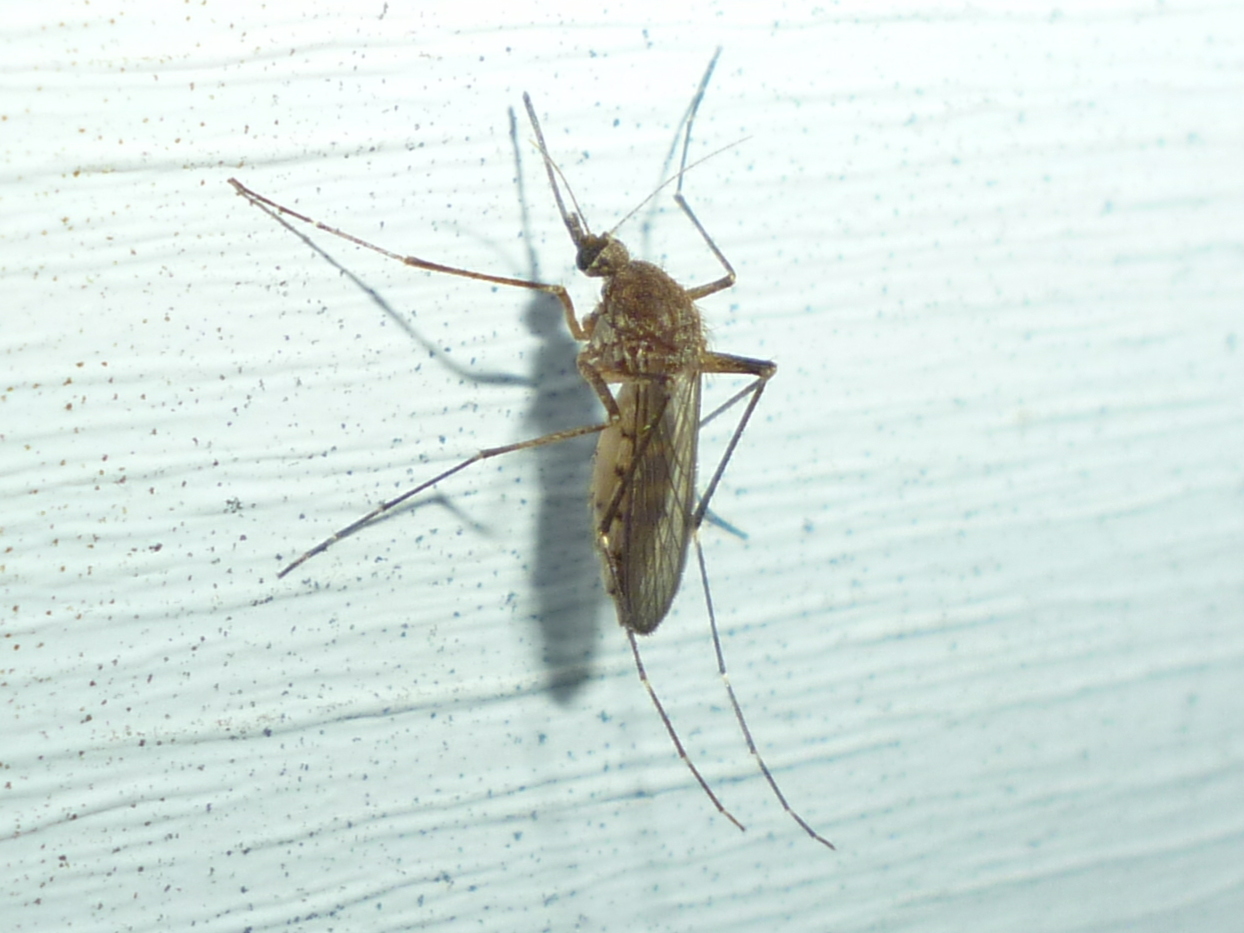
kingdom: Animalia
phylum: Arthropoda
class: Insecta
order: Diptera
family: Culicidae
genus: Aedes
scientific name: Aedes vexans
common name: Inland floodwater mosquito
